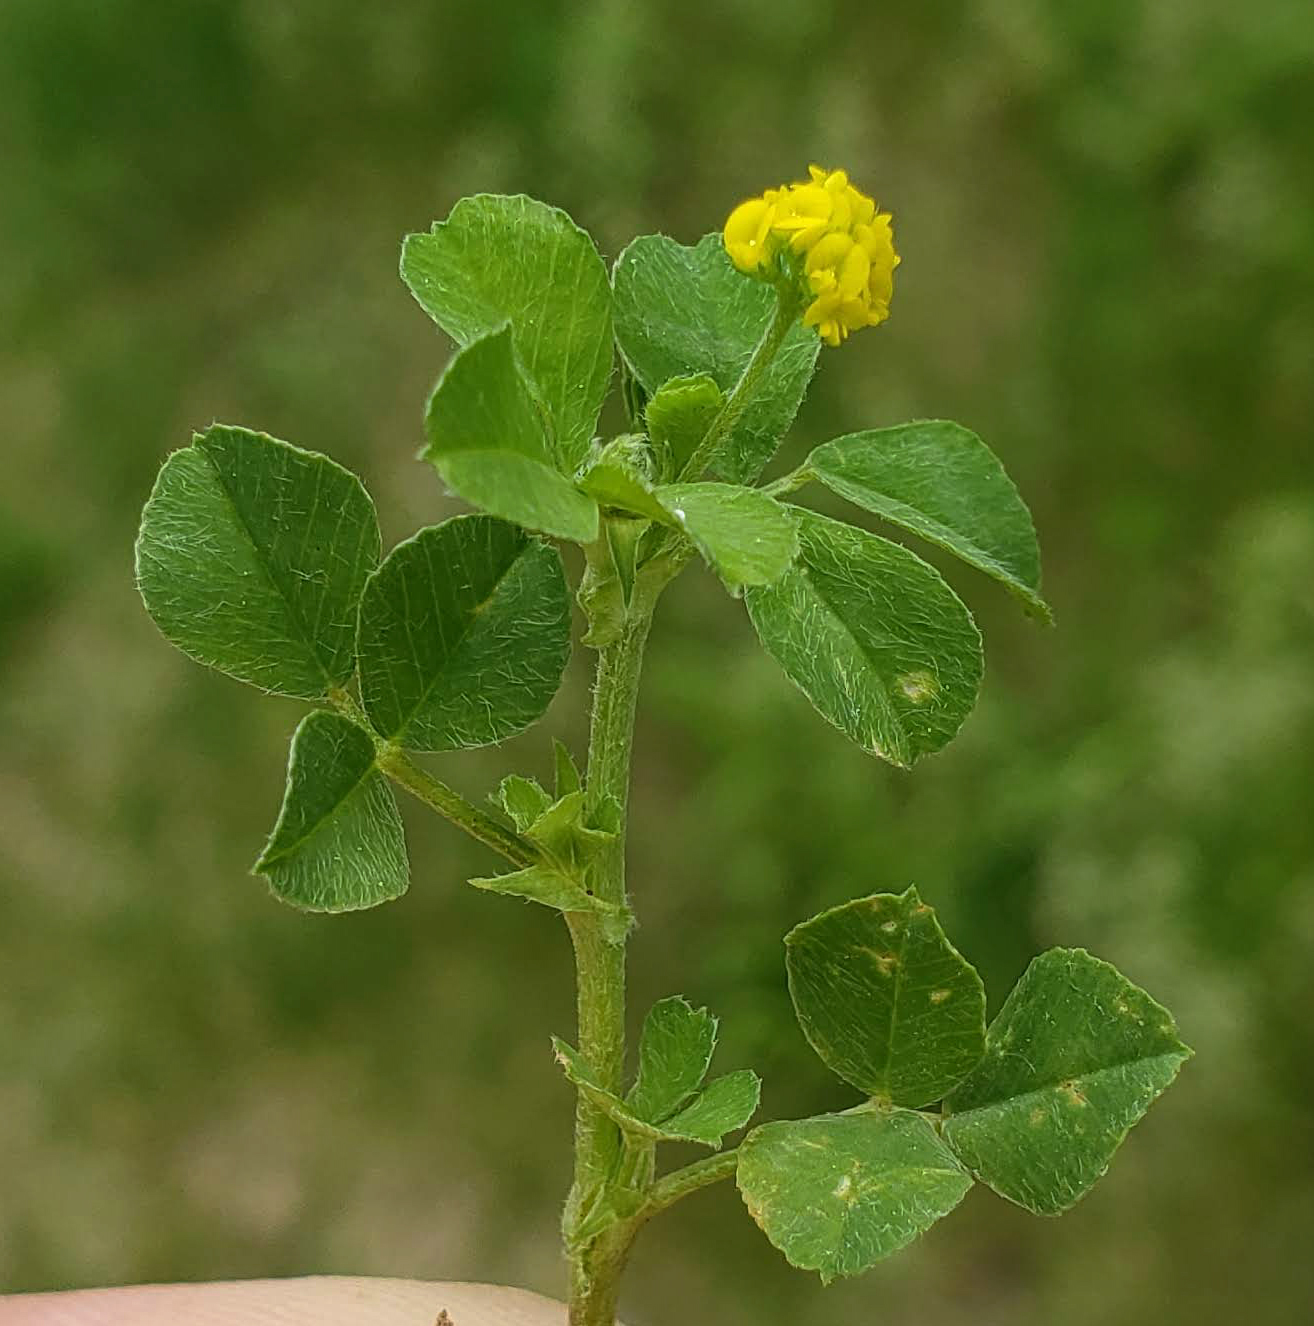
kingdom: Plantae
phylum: Tracheophyta
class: Magnoliopsida
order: Fabales
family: Fabaceae
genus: Medicago
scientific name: Medicago lupulina
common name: Black medick
